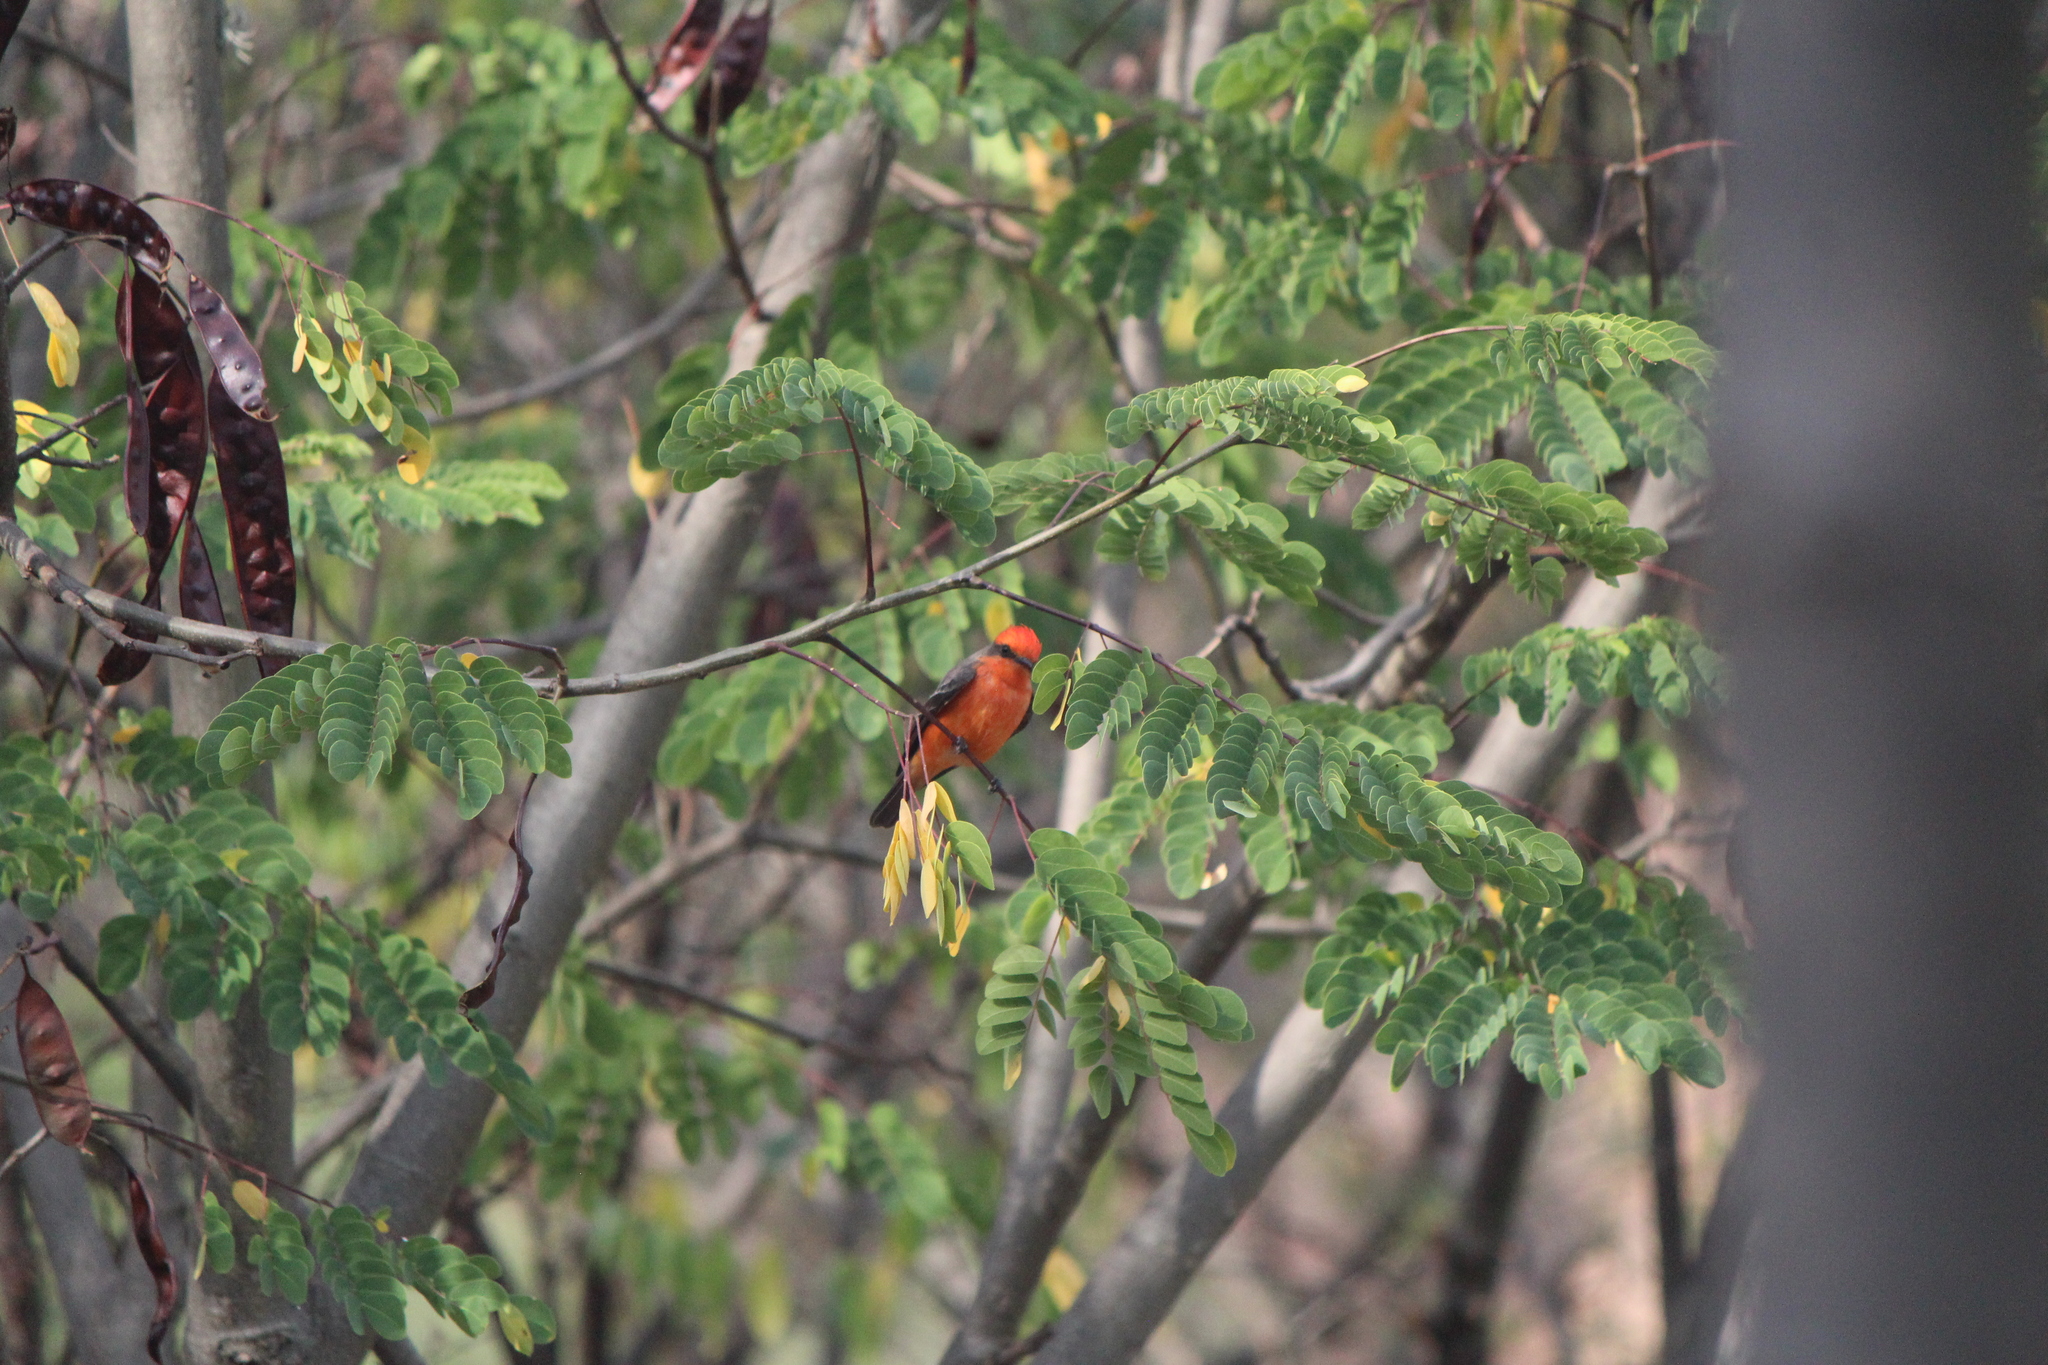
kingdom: Animalia
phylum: Chordata
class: Aves
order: Passeriformes
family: Tyrannidae
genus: Pyrocephalus
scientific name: Pyrocephalus rubinus
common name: Vermilion flycatcher
